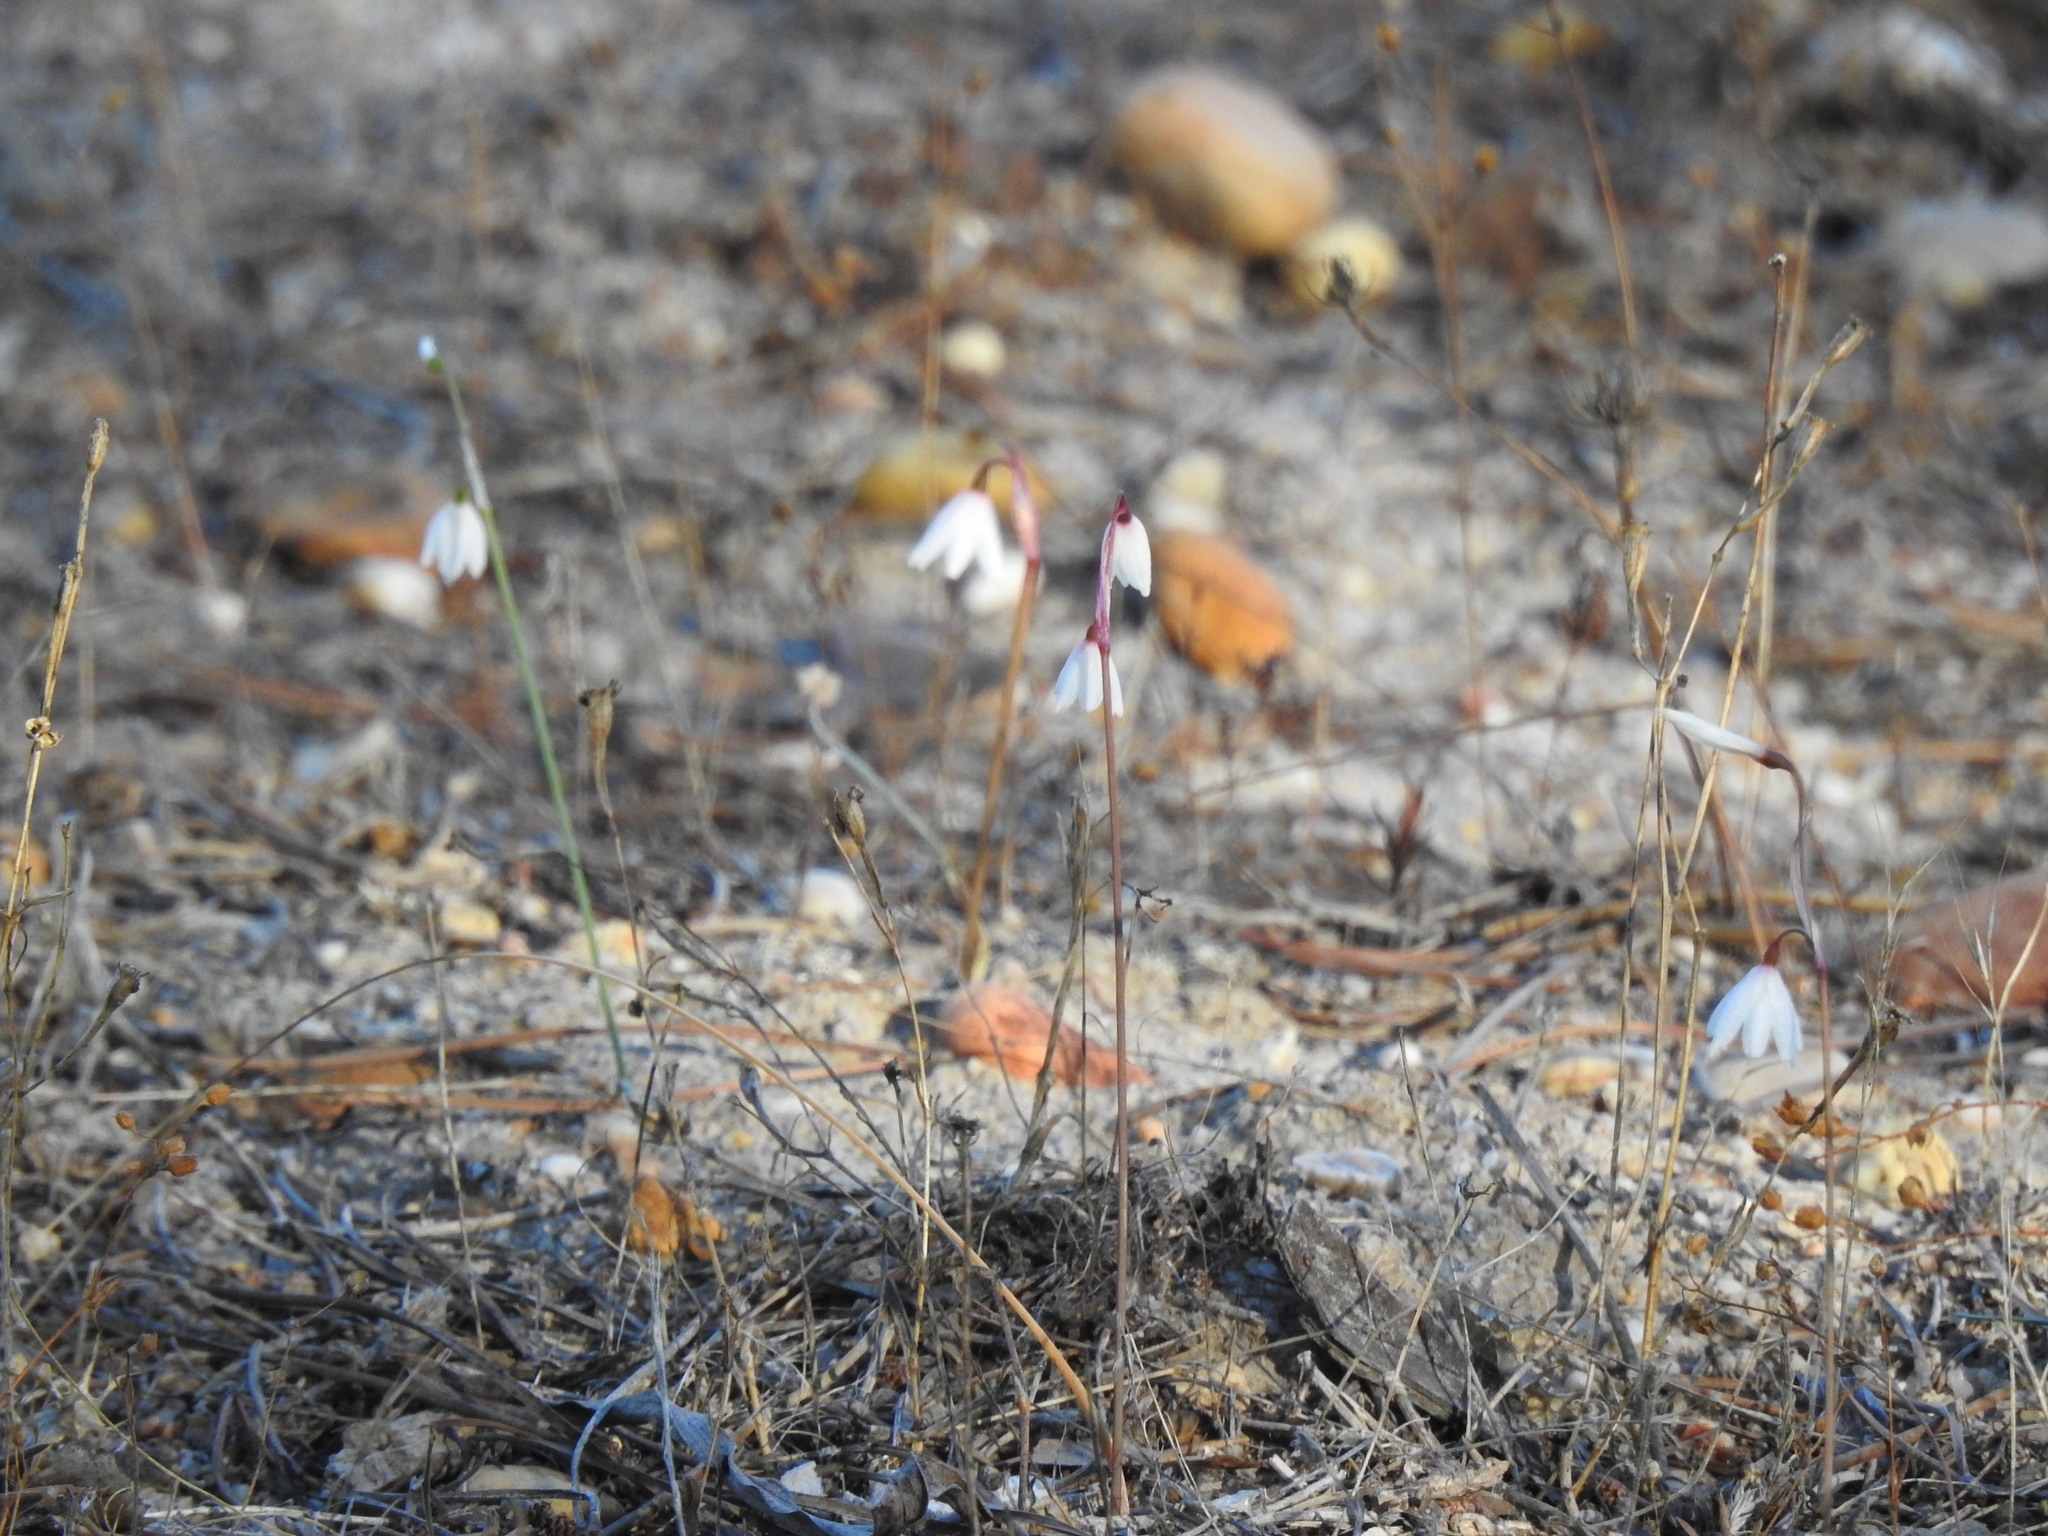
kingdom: Plantae
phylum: Tracheophyta
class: Liliopsida
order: Asparagales
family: Amaryllidaceae
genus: Acis
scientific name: Acis autumnalis
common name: Autumn snowflake
